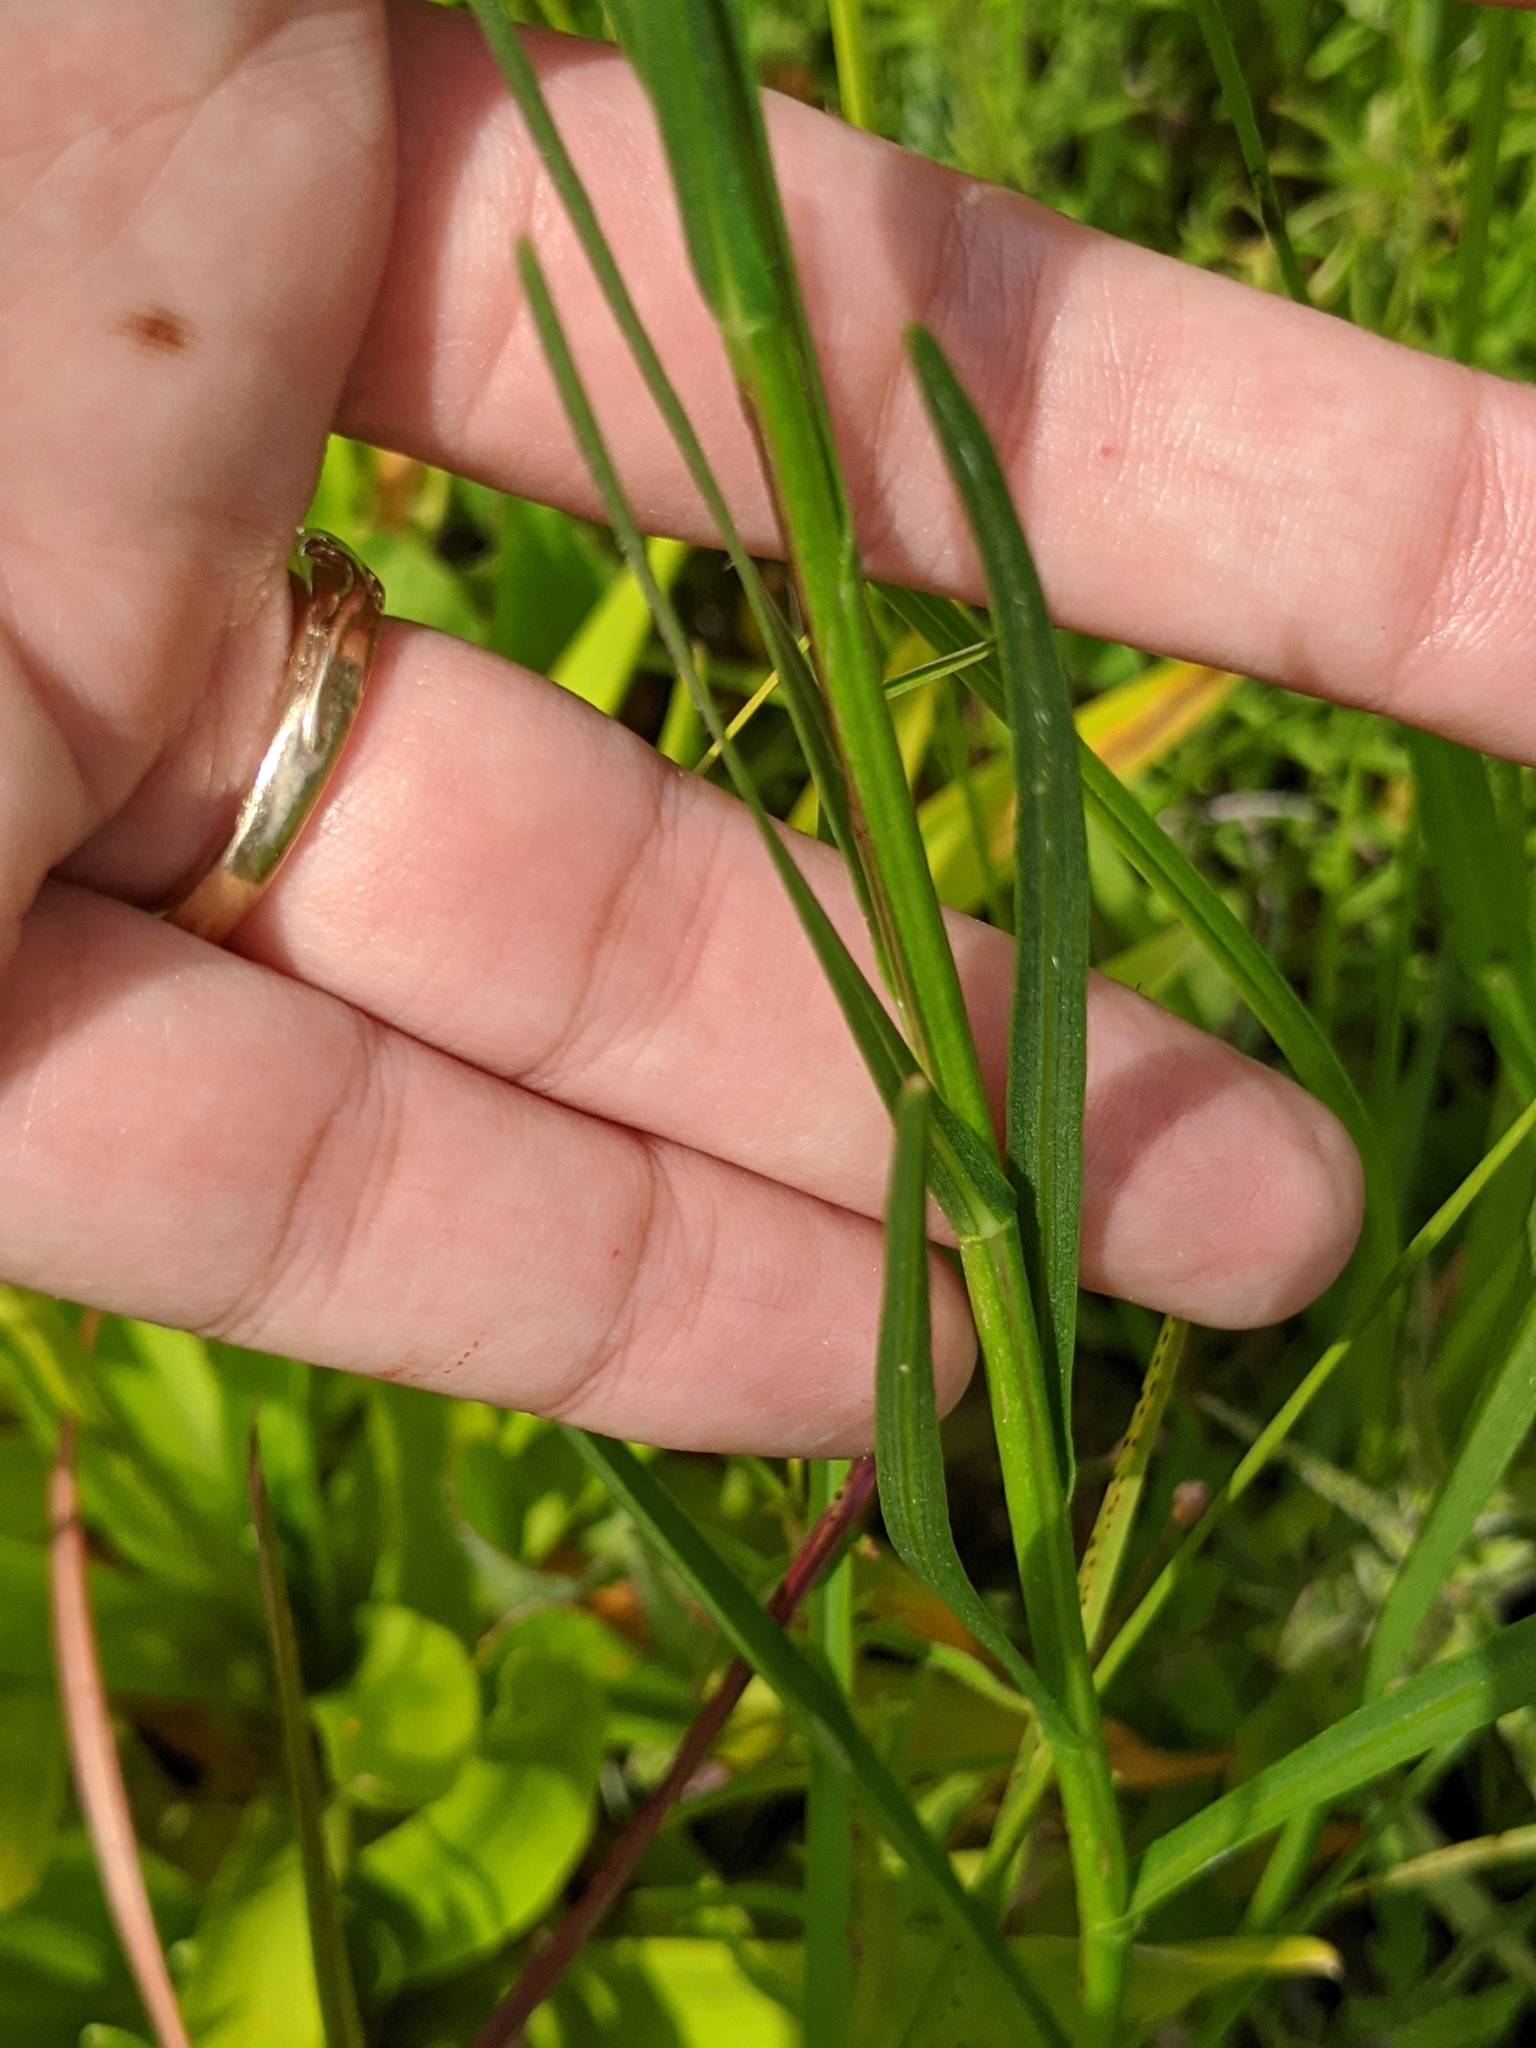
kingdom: Plantae
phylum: Tracheophyta
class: Magnoliopsida
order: Asterales
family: Asteraceae
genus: Liatris
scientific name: Liatris spicata
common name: Florist gayfeather
